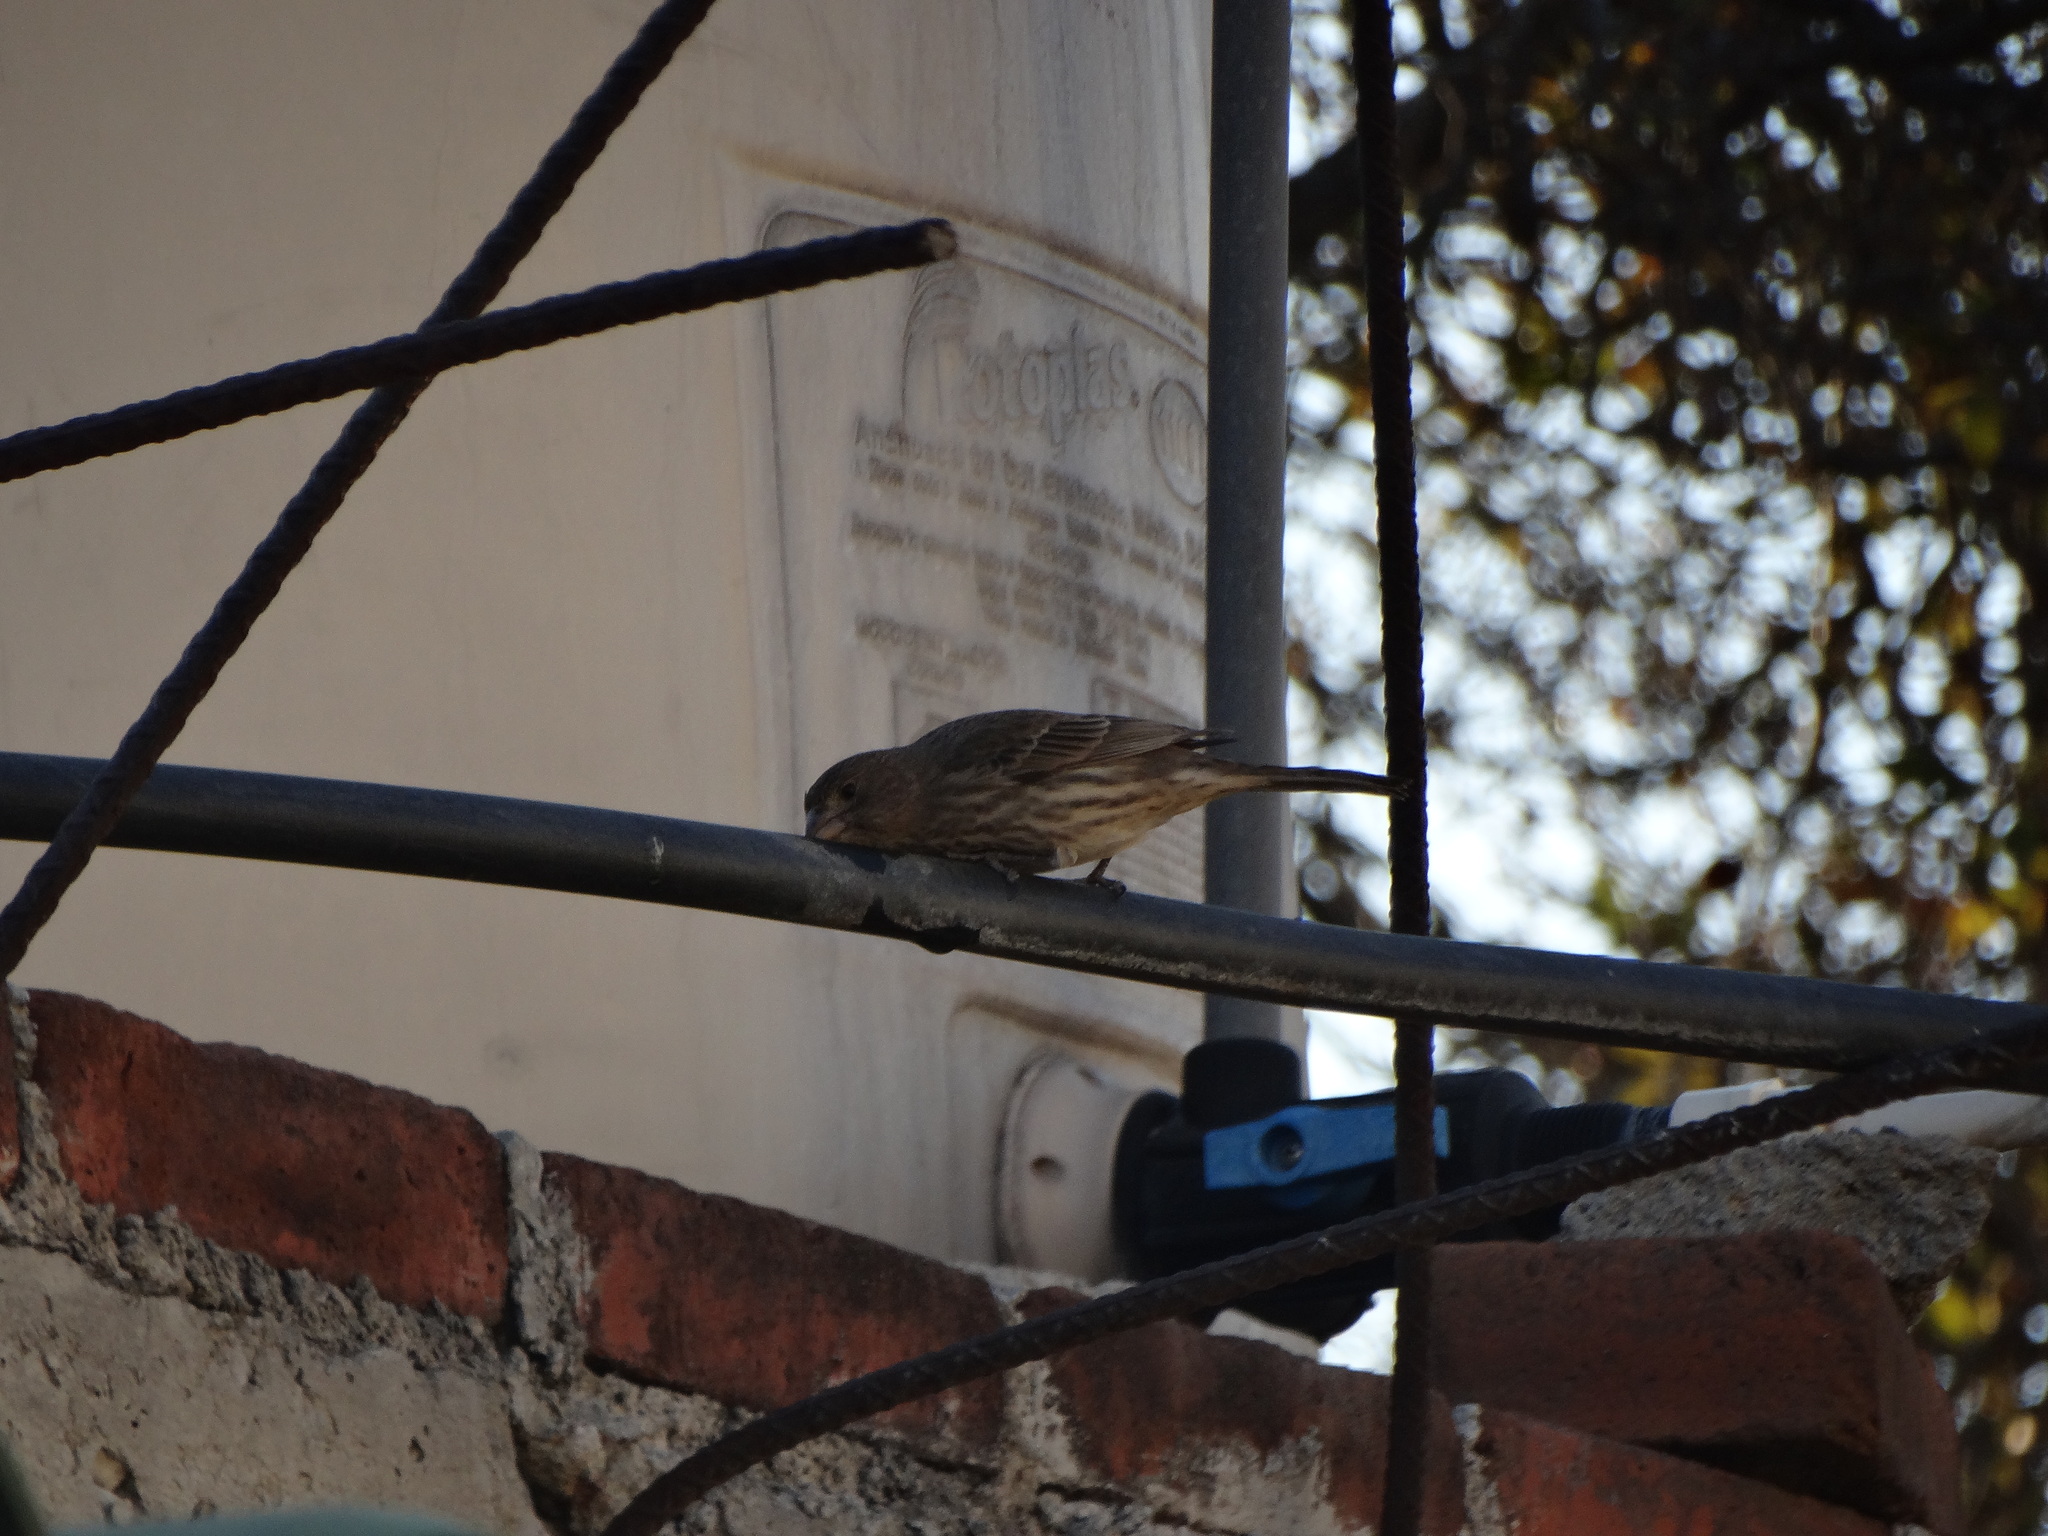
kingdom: Animalia
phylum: Chordata
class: Aves
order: Passeriformes
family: Fringillidae
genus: Haemorhous
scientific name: Haemorhous mexicanus
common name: House finch
